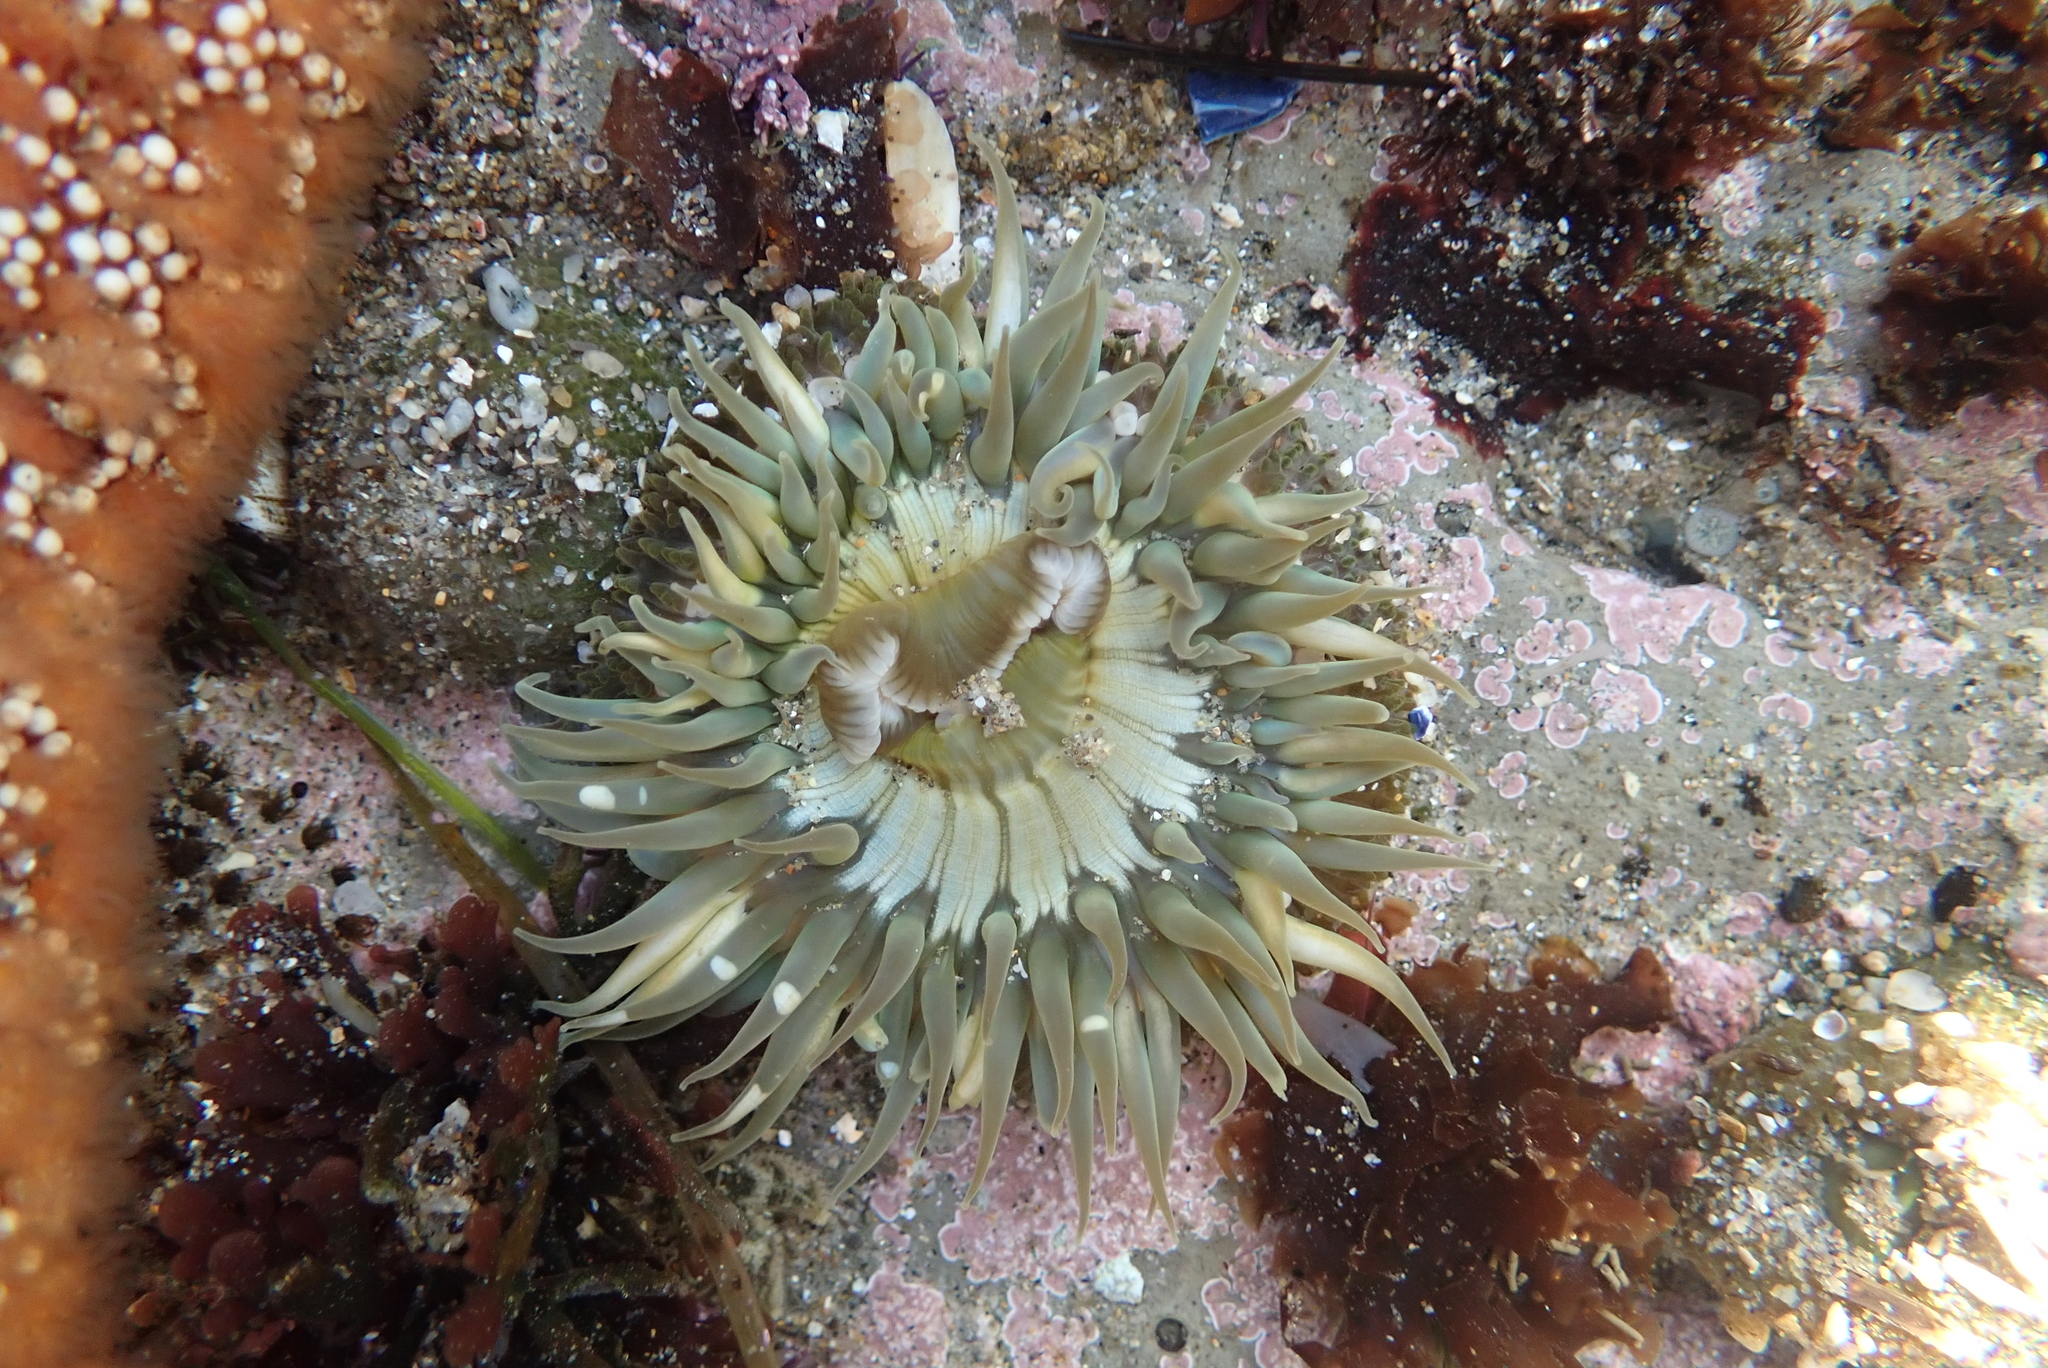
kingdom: Animalia
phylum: Cnidaria
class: Anthozoa
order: Actiniaria
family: Actiniidae
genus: Anthopleura
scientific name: Anthopleura sola
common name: Sun anemone
